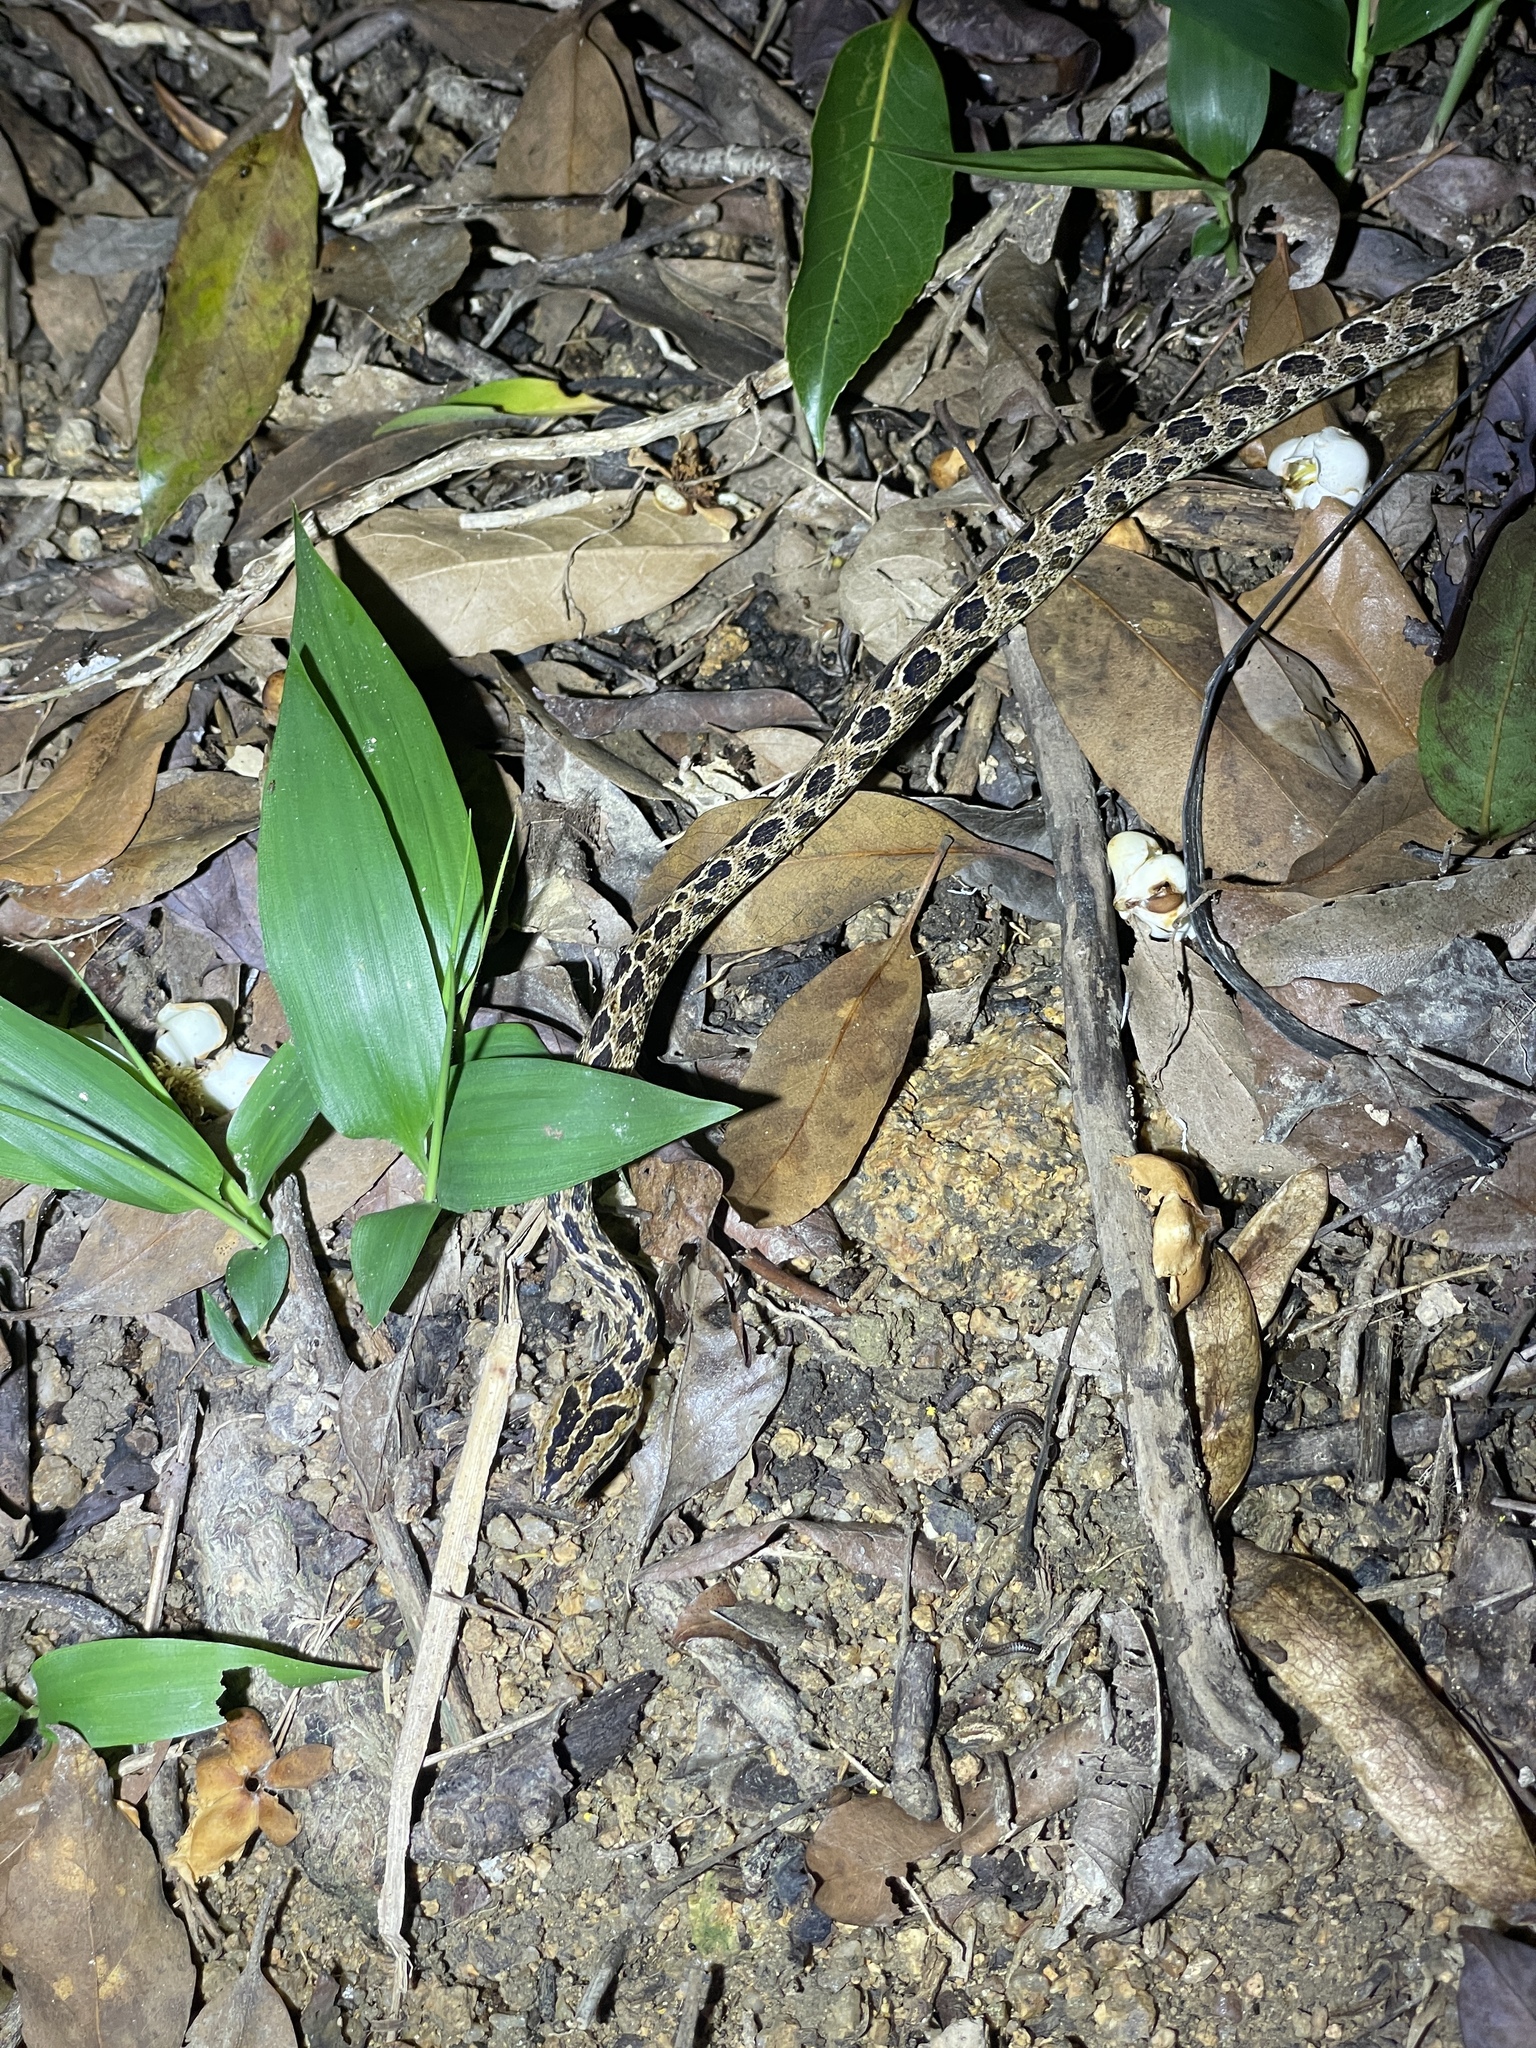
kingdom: Animalia
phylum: Chordata
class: Squamata
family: Colubridae
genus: Boiga
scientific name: Boiga multomaculata
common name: Many-spotted cat snake
